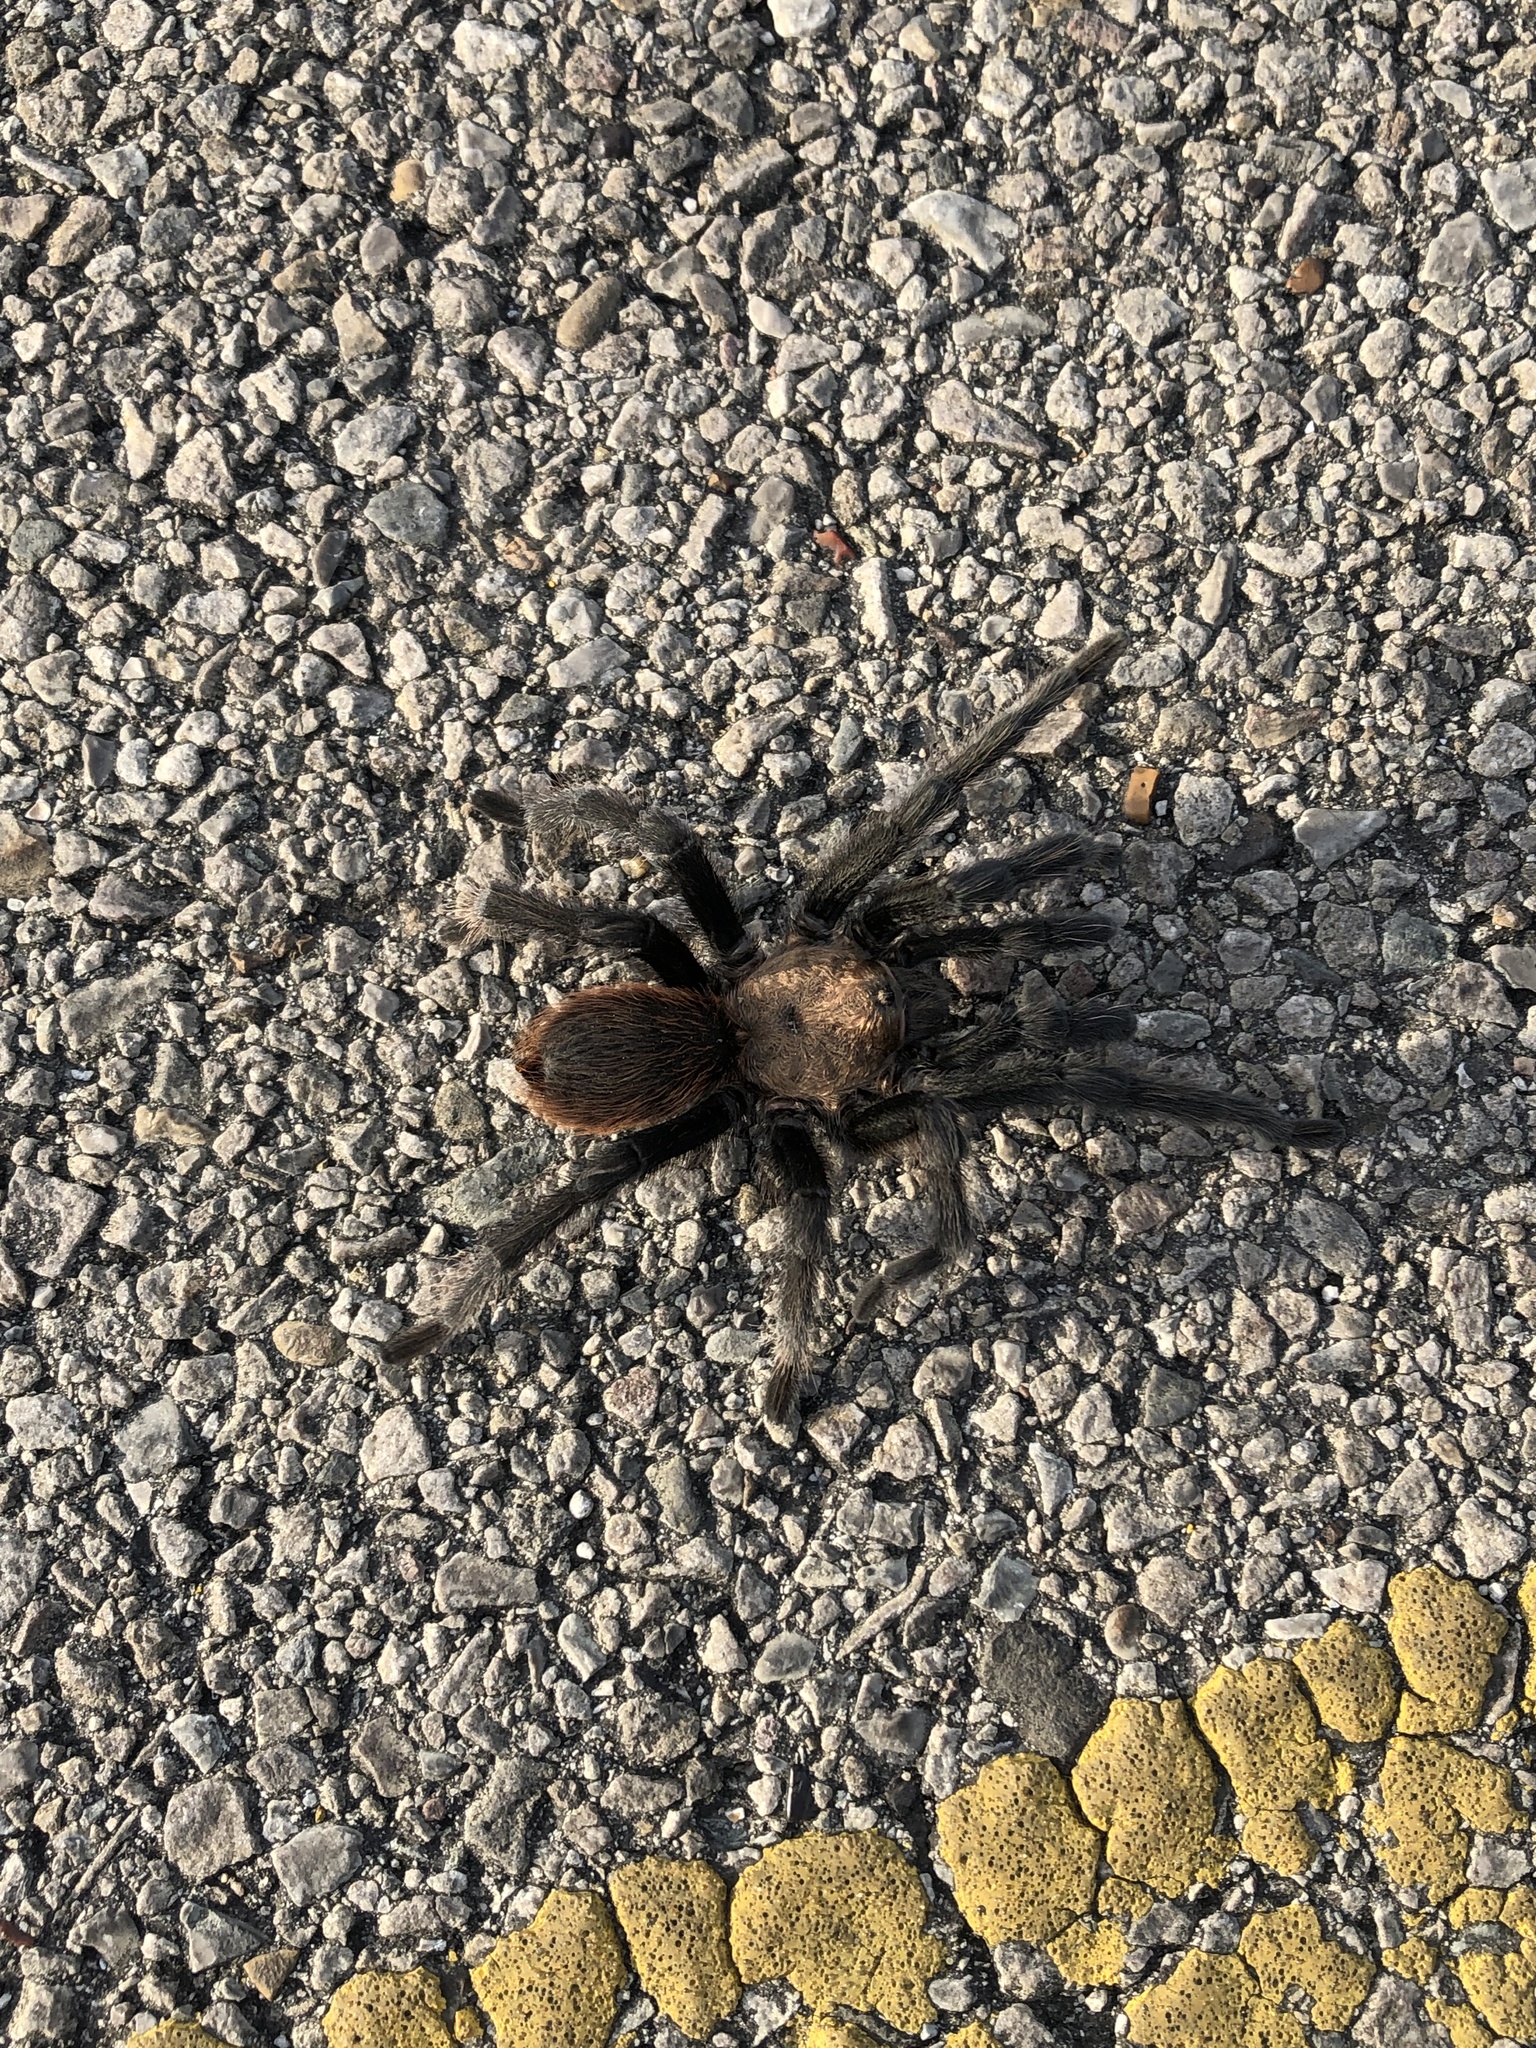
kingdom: Animalia
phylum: Arthropoda
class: Arachnida
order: Araneae
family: Theraphosidae
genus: Aphonopelma
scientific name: Aphonopelma hentzi
